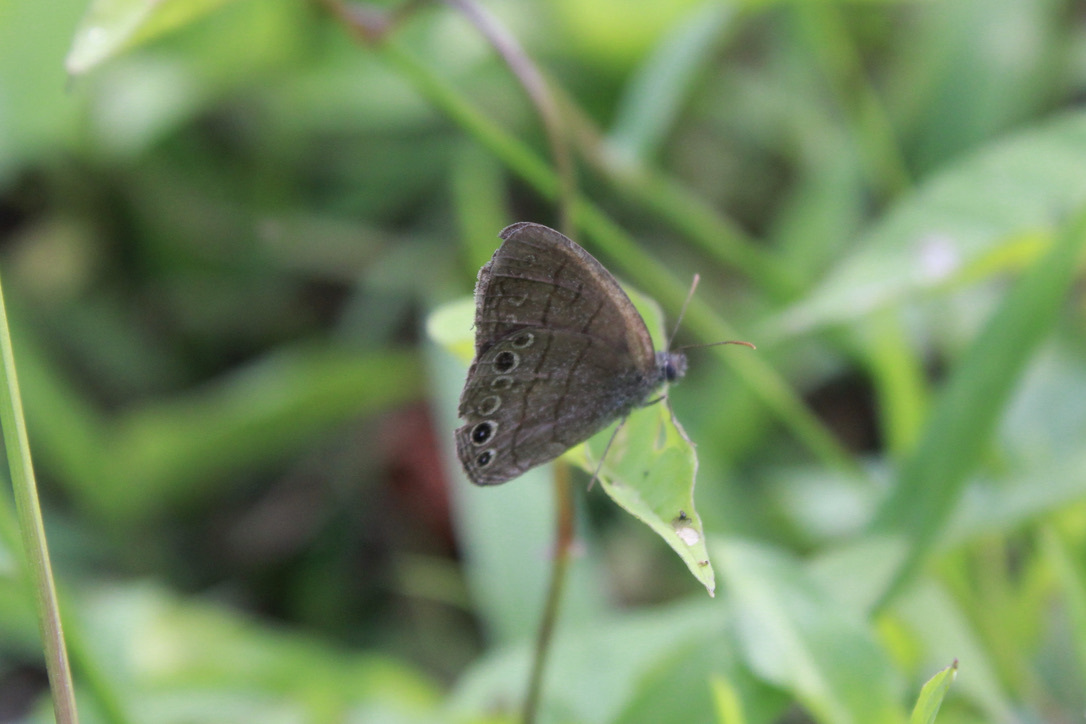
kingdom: Animalia
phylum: Arthropoda
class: Insecta
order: Lepidoptera
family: Nymphalidae
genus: Hermeuptychia
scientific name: Hermeuptychia canthe
